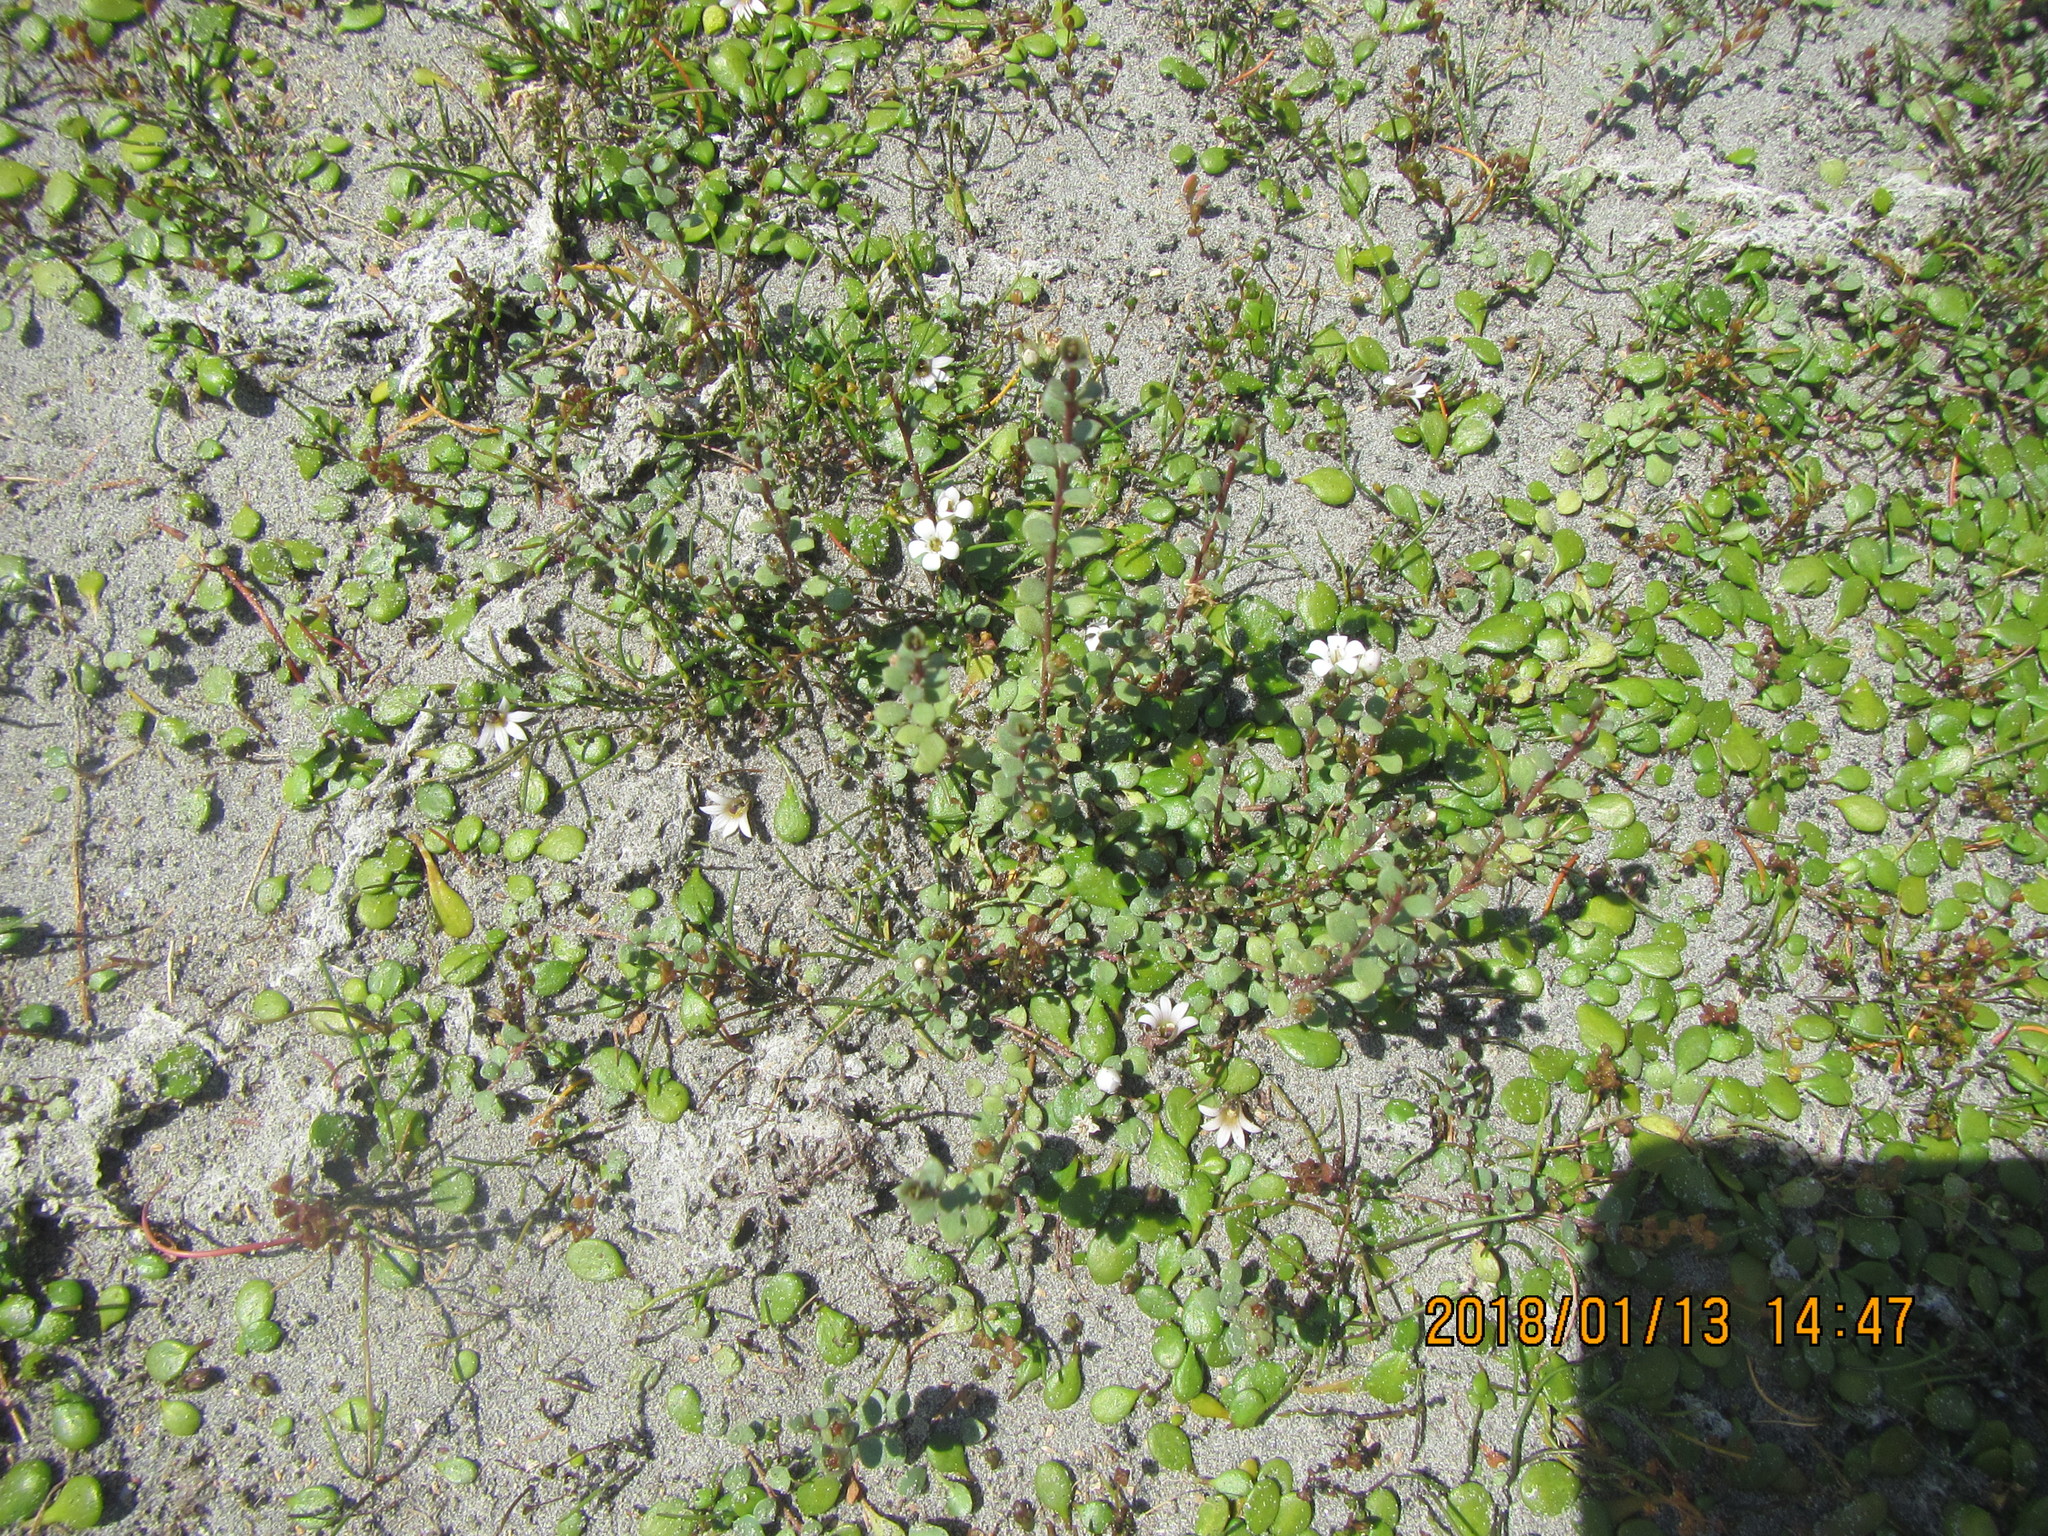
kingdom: Plantae
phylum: Tracheophyta
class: Magnoliopsida
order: Ericales
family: Primulaceae
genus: Samolus
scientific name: Samolus repens
